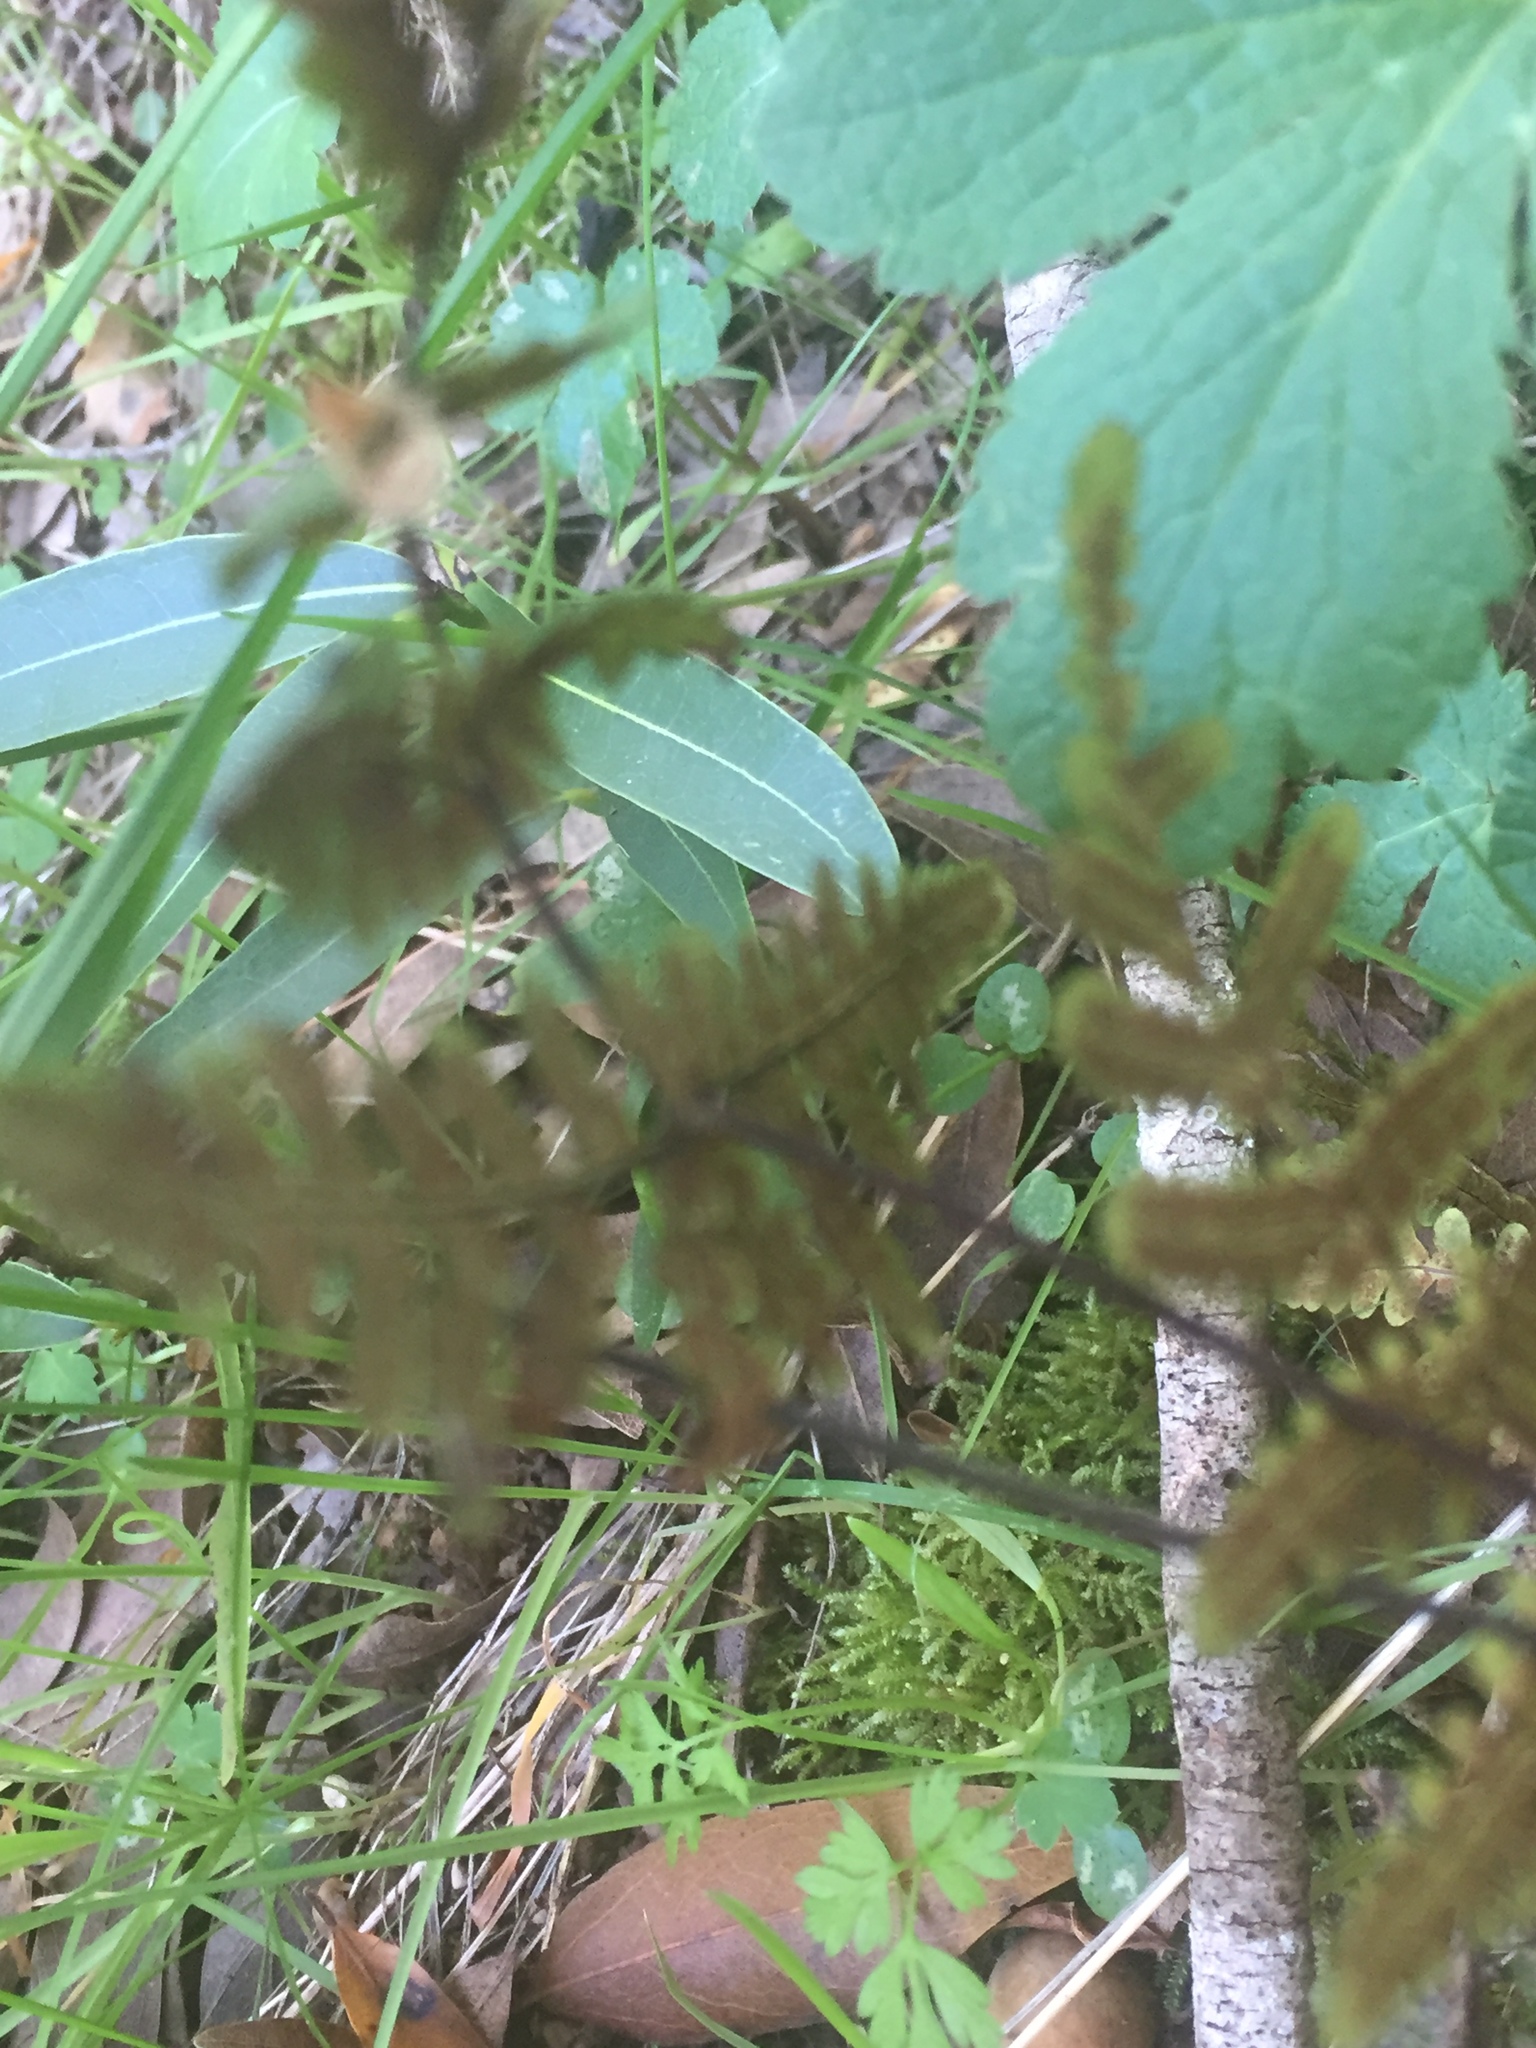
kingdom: Plantae
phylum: Tracheophyta
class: Polypodiopsida
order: Polypodiales
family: Pteridaceae
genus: Pentagramma
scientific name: Pentagramma triangularis
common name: Gold fern
